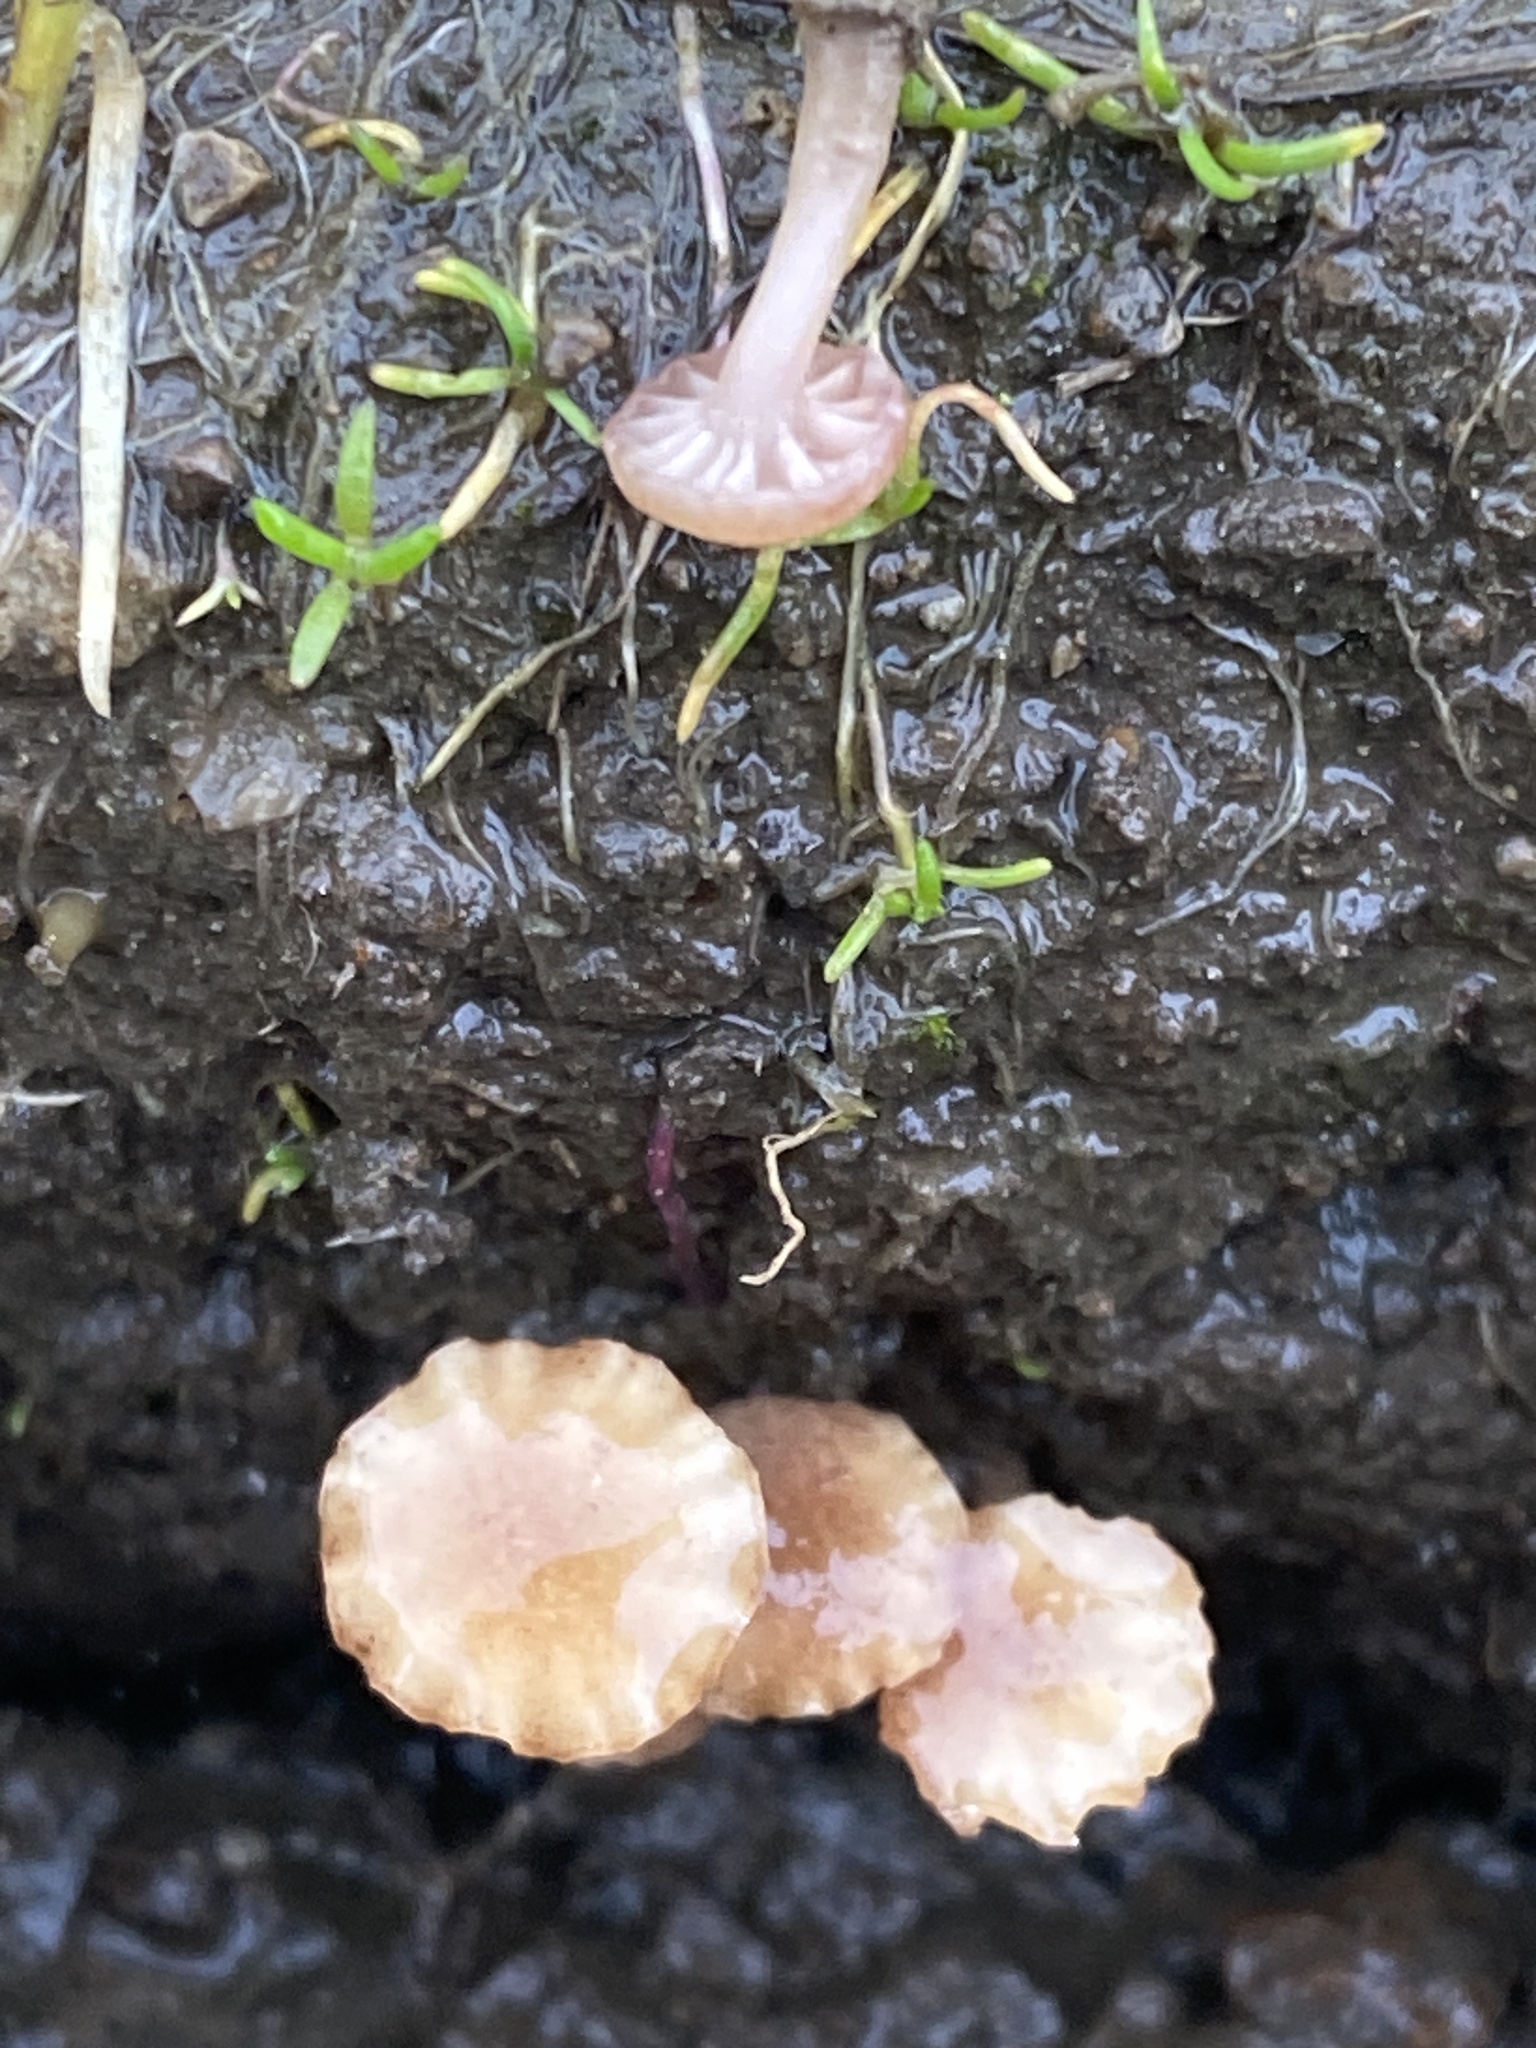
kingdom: Fungi
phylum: Basidiomycota
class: Agaricomycetes
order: Hymenochaetales
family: Rickenellaceae
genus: Contumyces
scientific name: Contumyces rosellus
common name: Rosy navel
